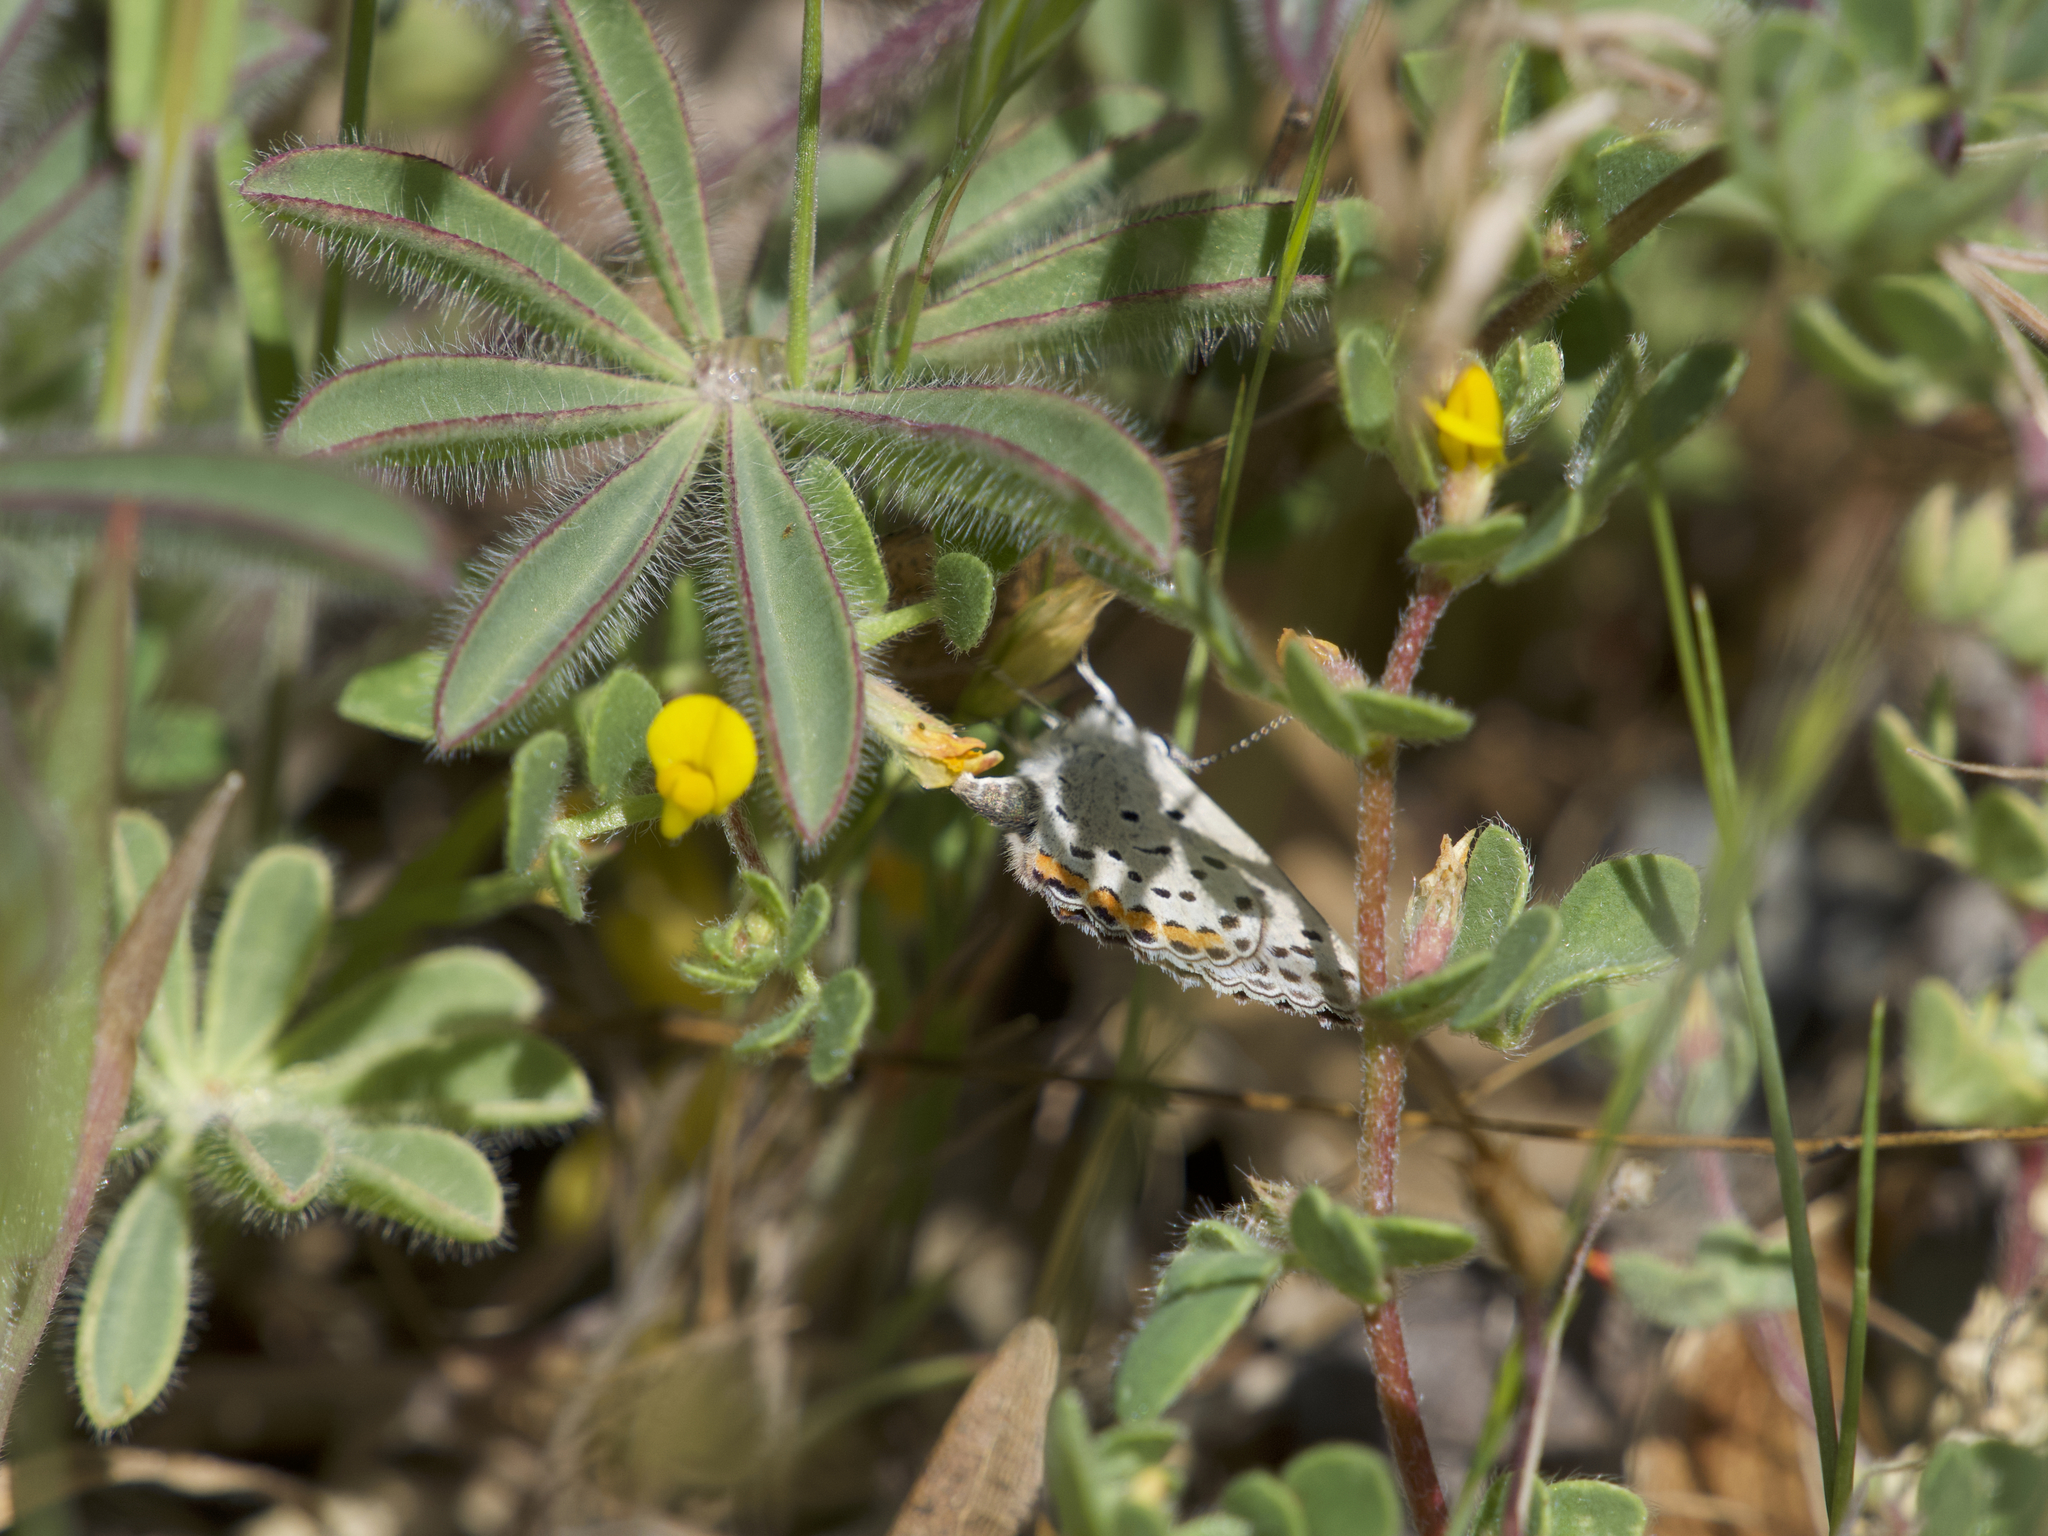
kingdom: Animalia
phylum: Arthropoda
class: Insecta
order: Lepidoptera
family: Lycaenidae
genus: Icaricia
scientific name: Icaricia acmon
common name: Acmon blue
